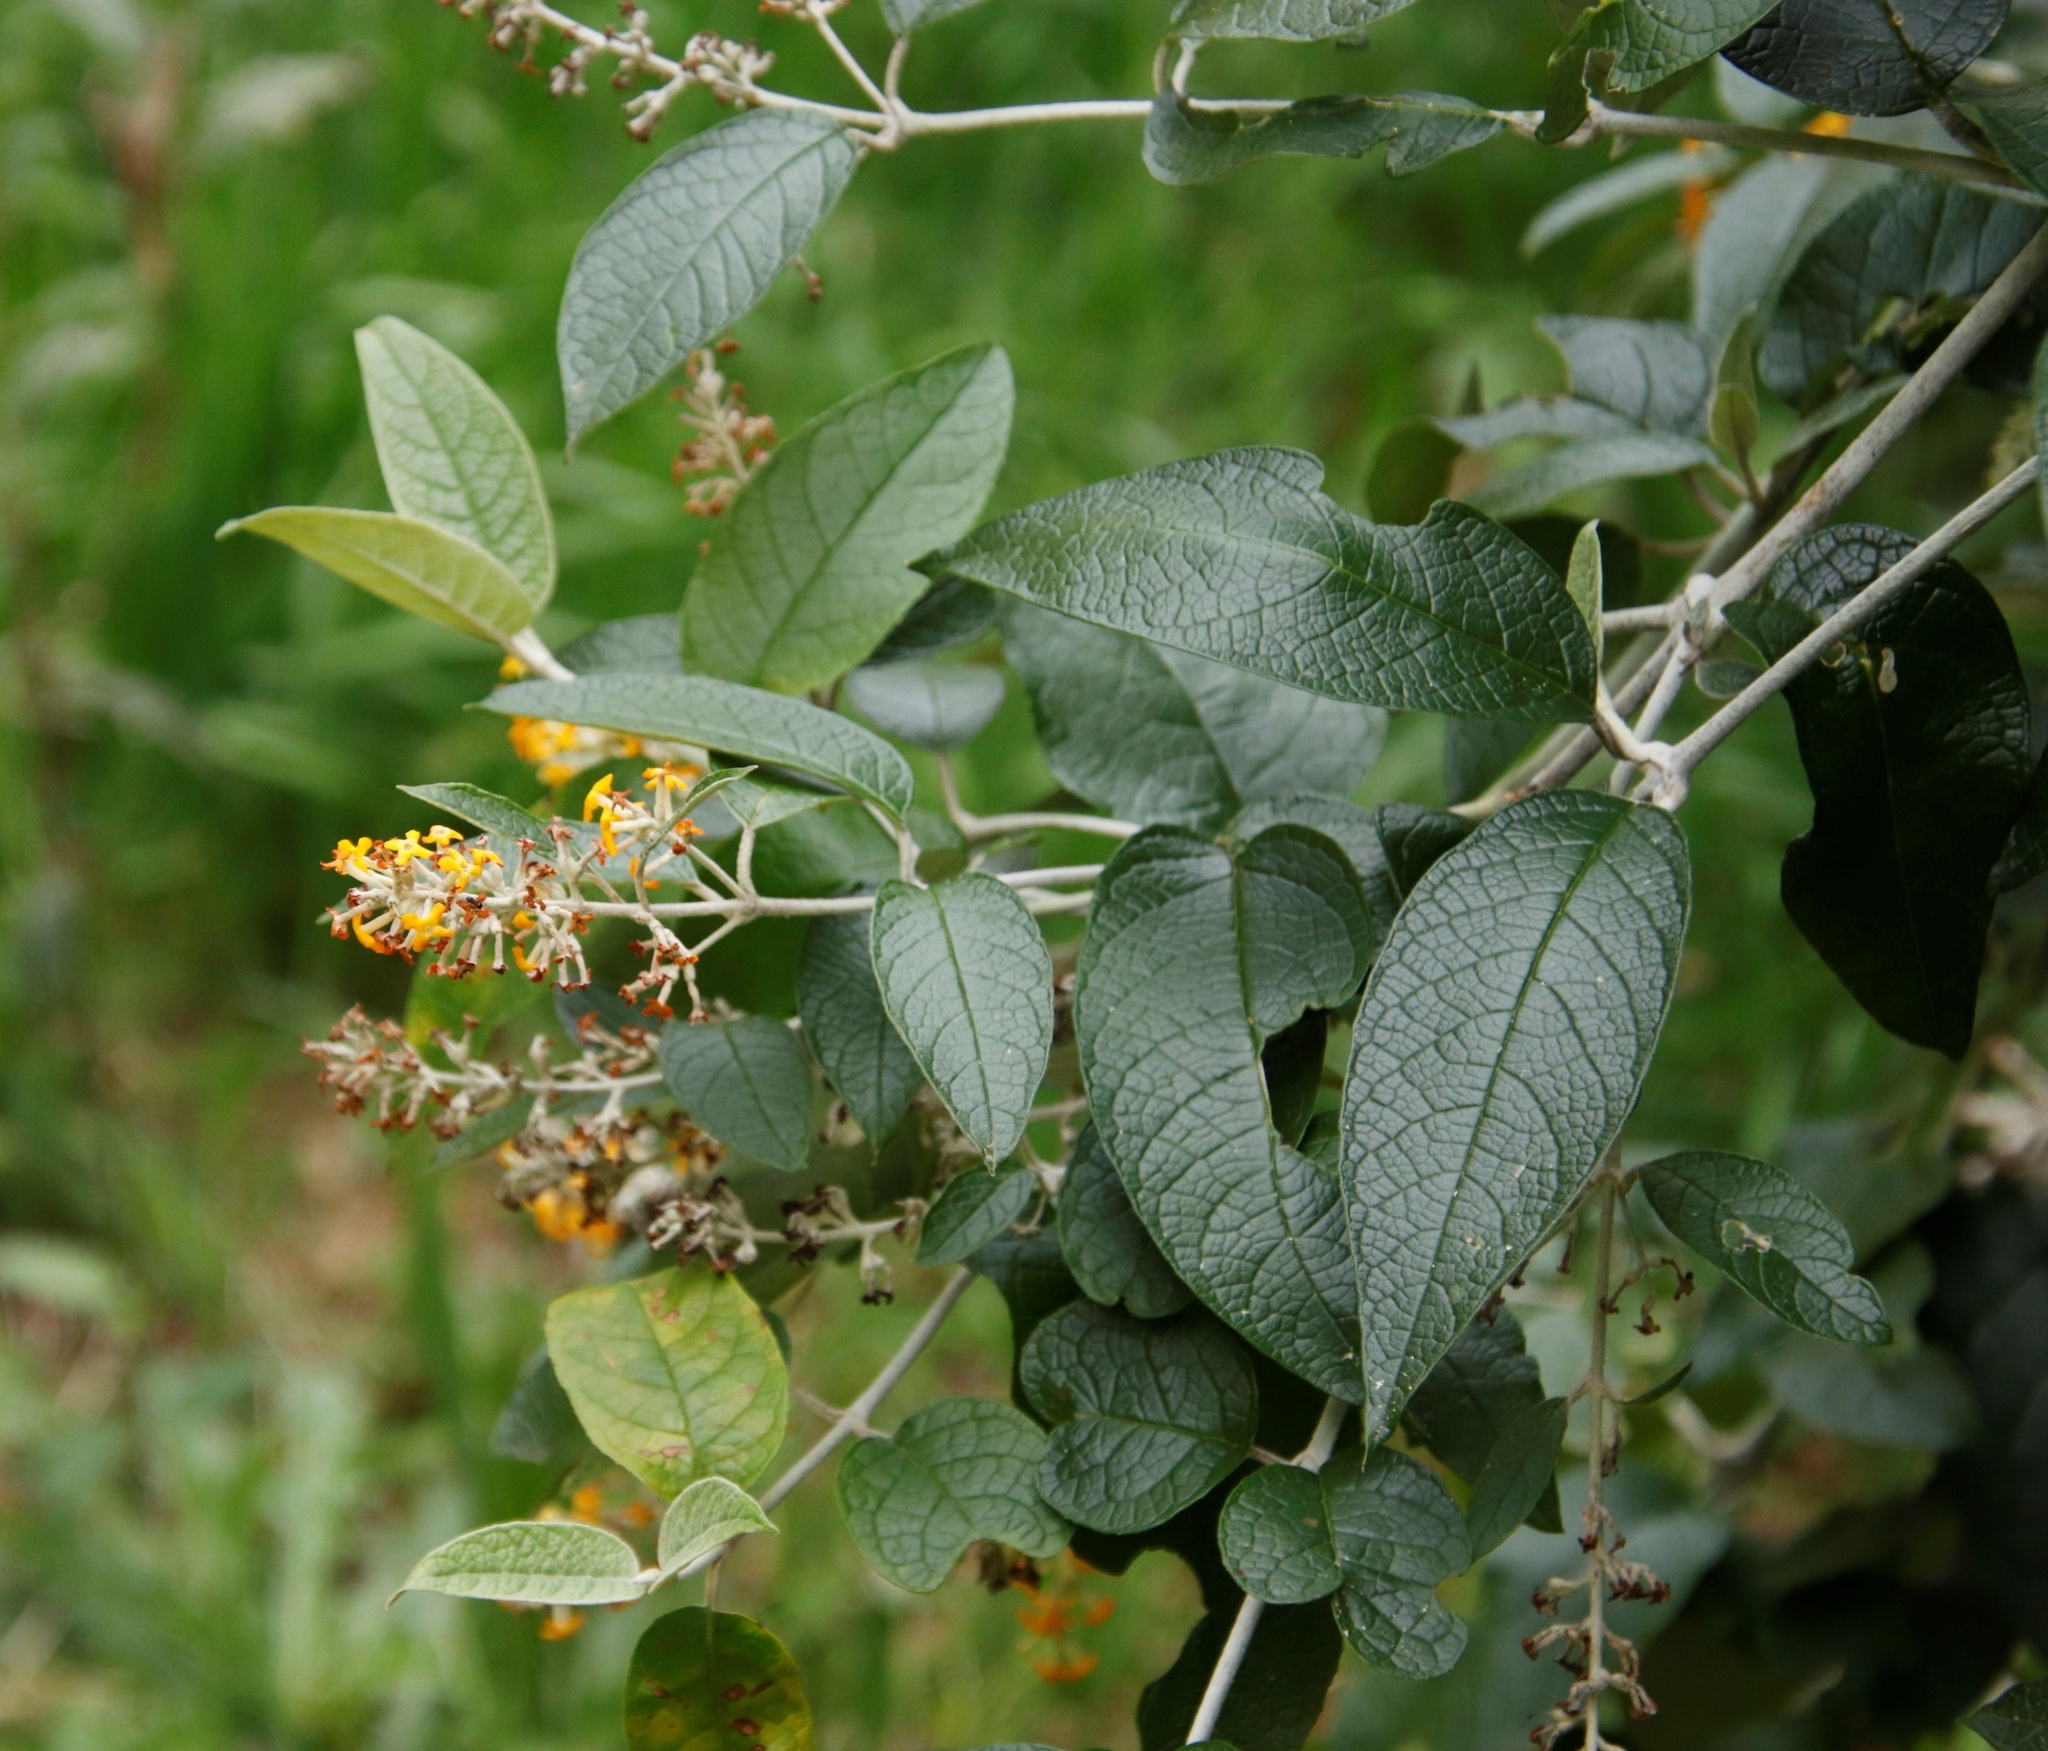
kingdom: Plantae
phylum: Tracheophyta
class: Magnoliopsida
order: Lamiales
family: Scrophulariaceae
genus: Buddleja
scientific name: Buddleja madagascariensis
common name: Smokebush
